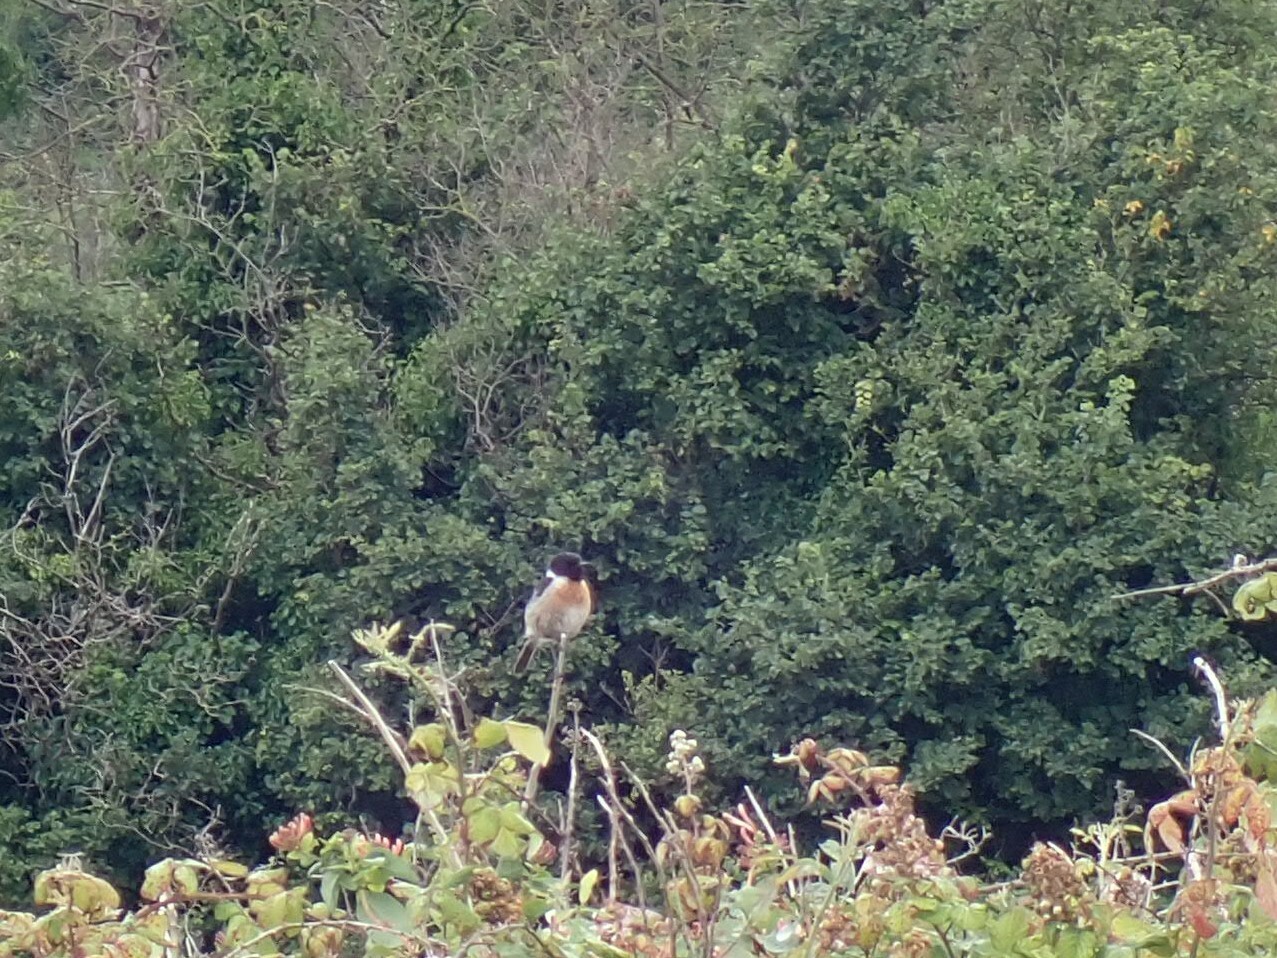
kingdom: Animalia
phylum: Chordata
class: Aves
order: Passeriformes
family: Muscicapidae
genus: Saxicola
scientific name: Saxicola rubicola
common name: European stonechat
